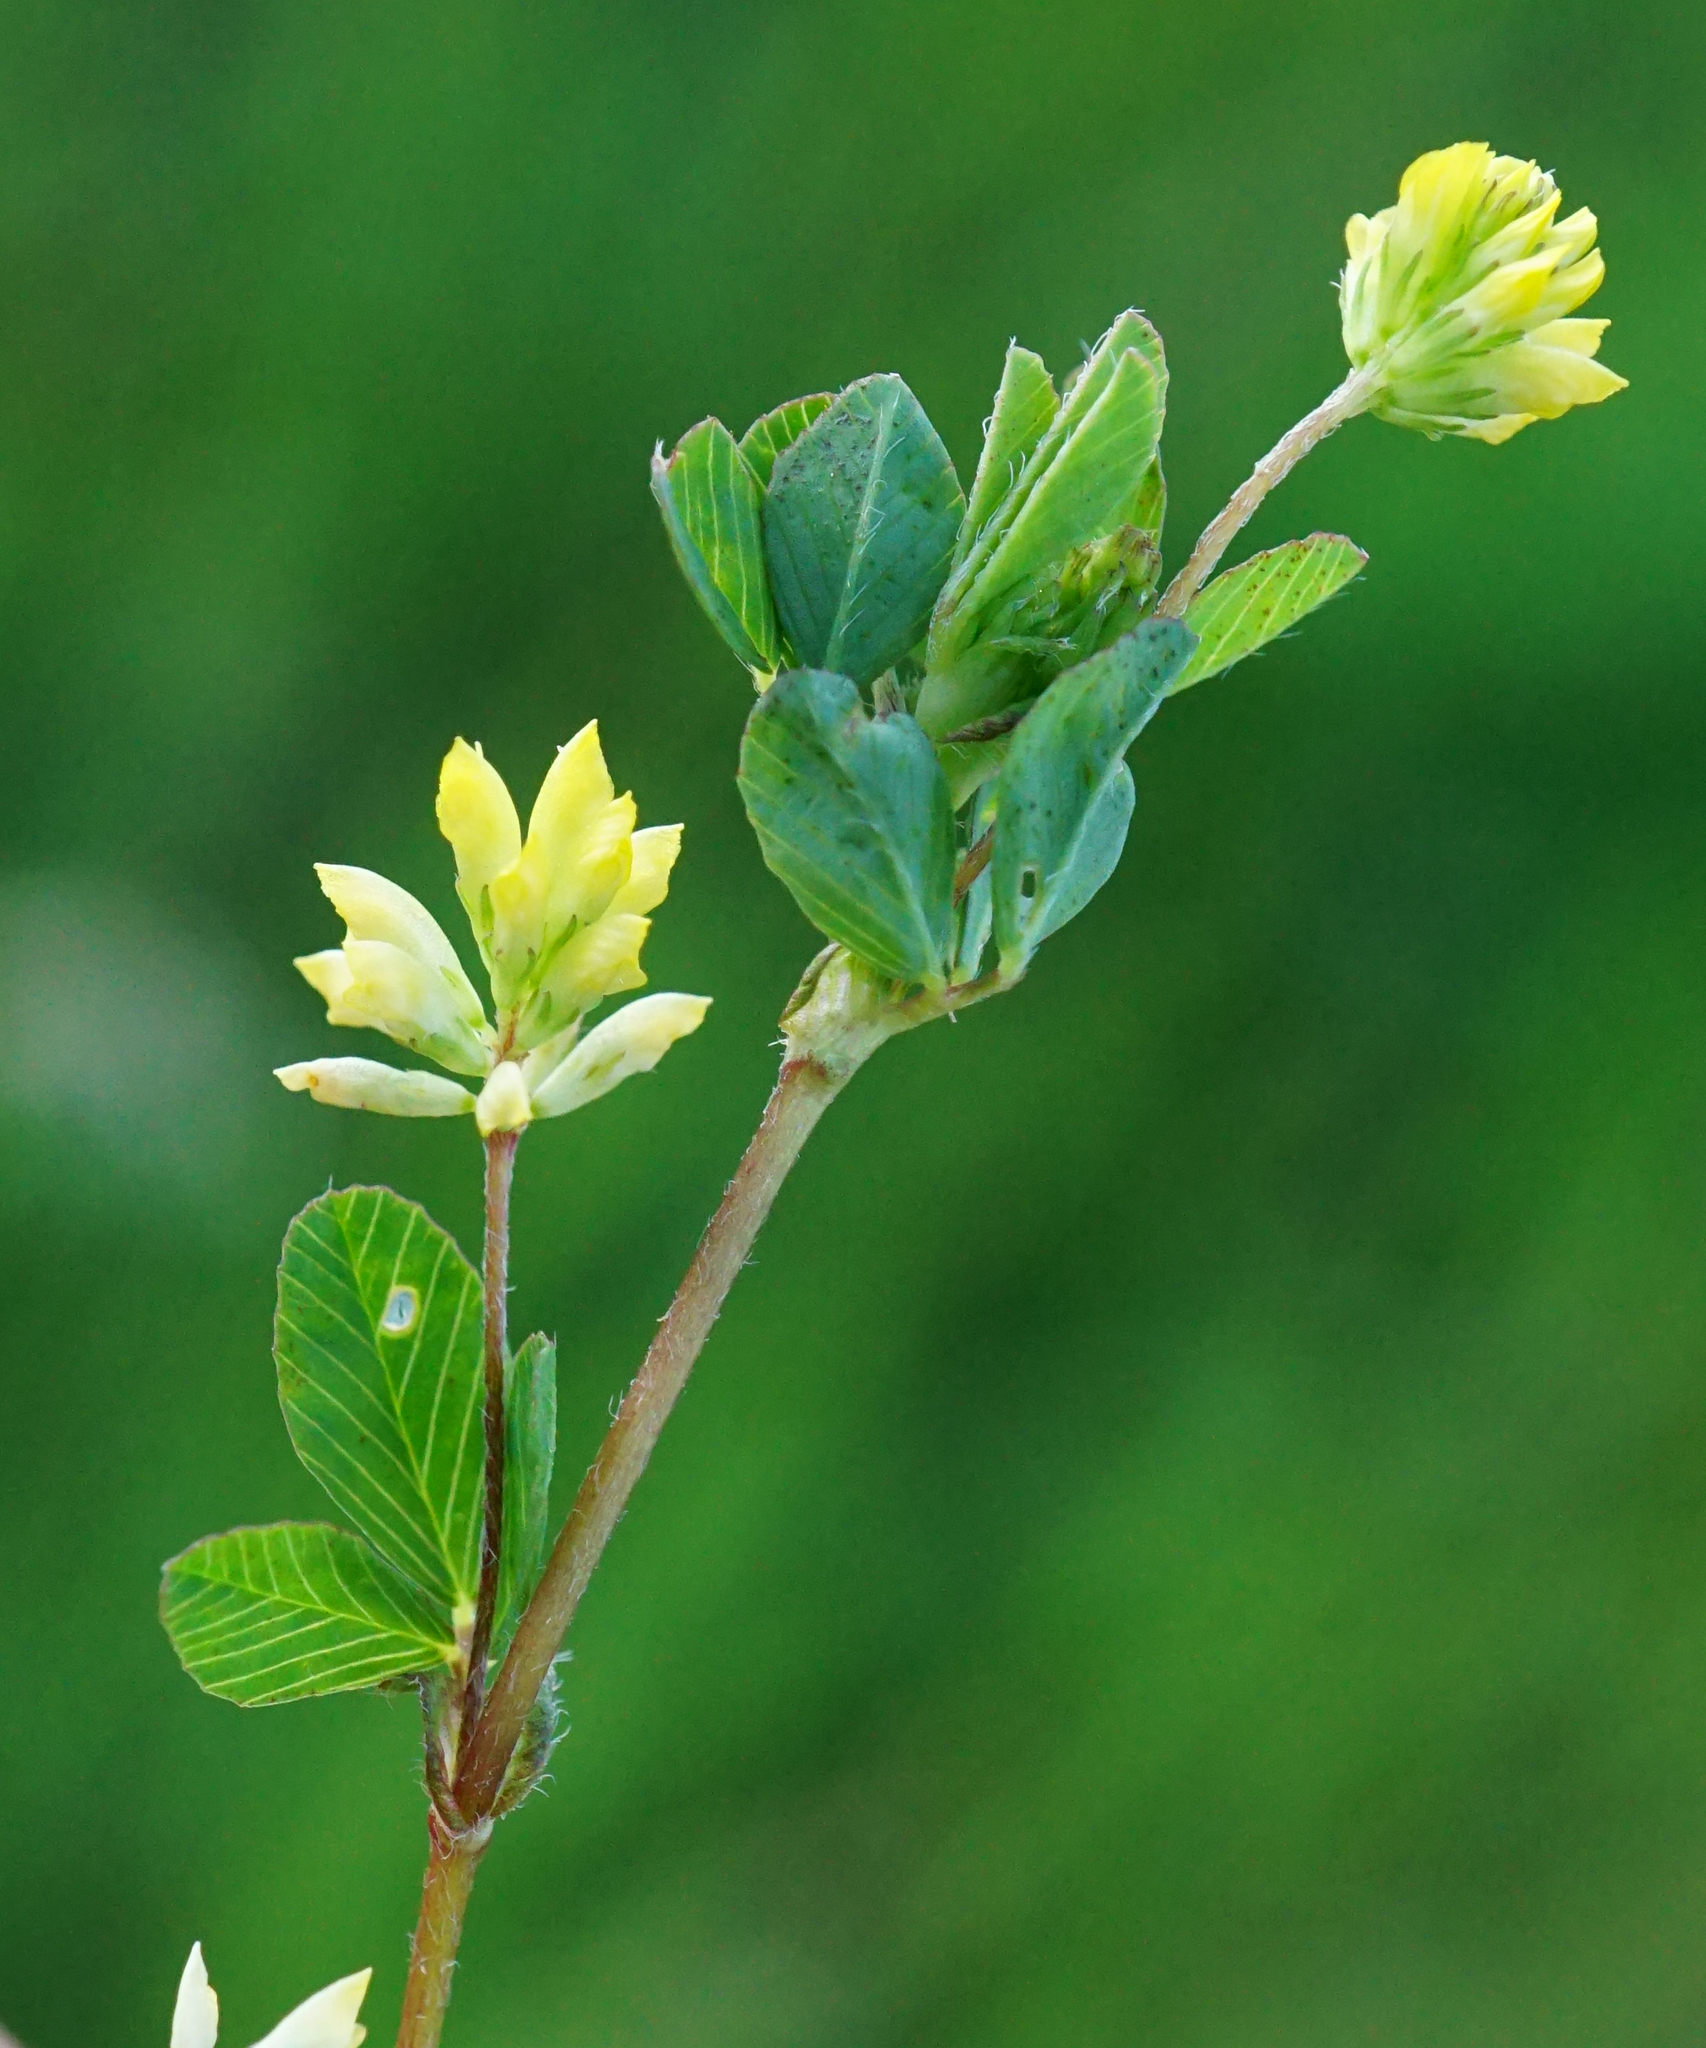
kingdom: Plantae
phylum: Tracheophyta
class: Magnoliopsida
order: Fabales
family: Fabaceae
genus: Trifolium
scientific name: Trifolium dubium
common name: Suckling clover
